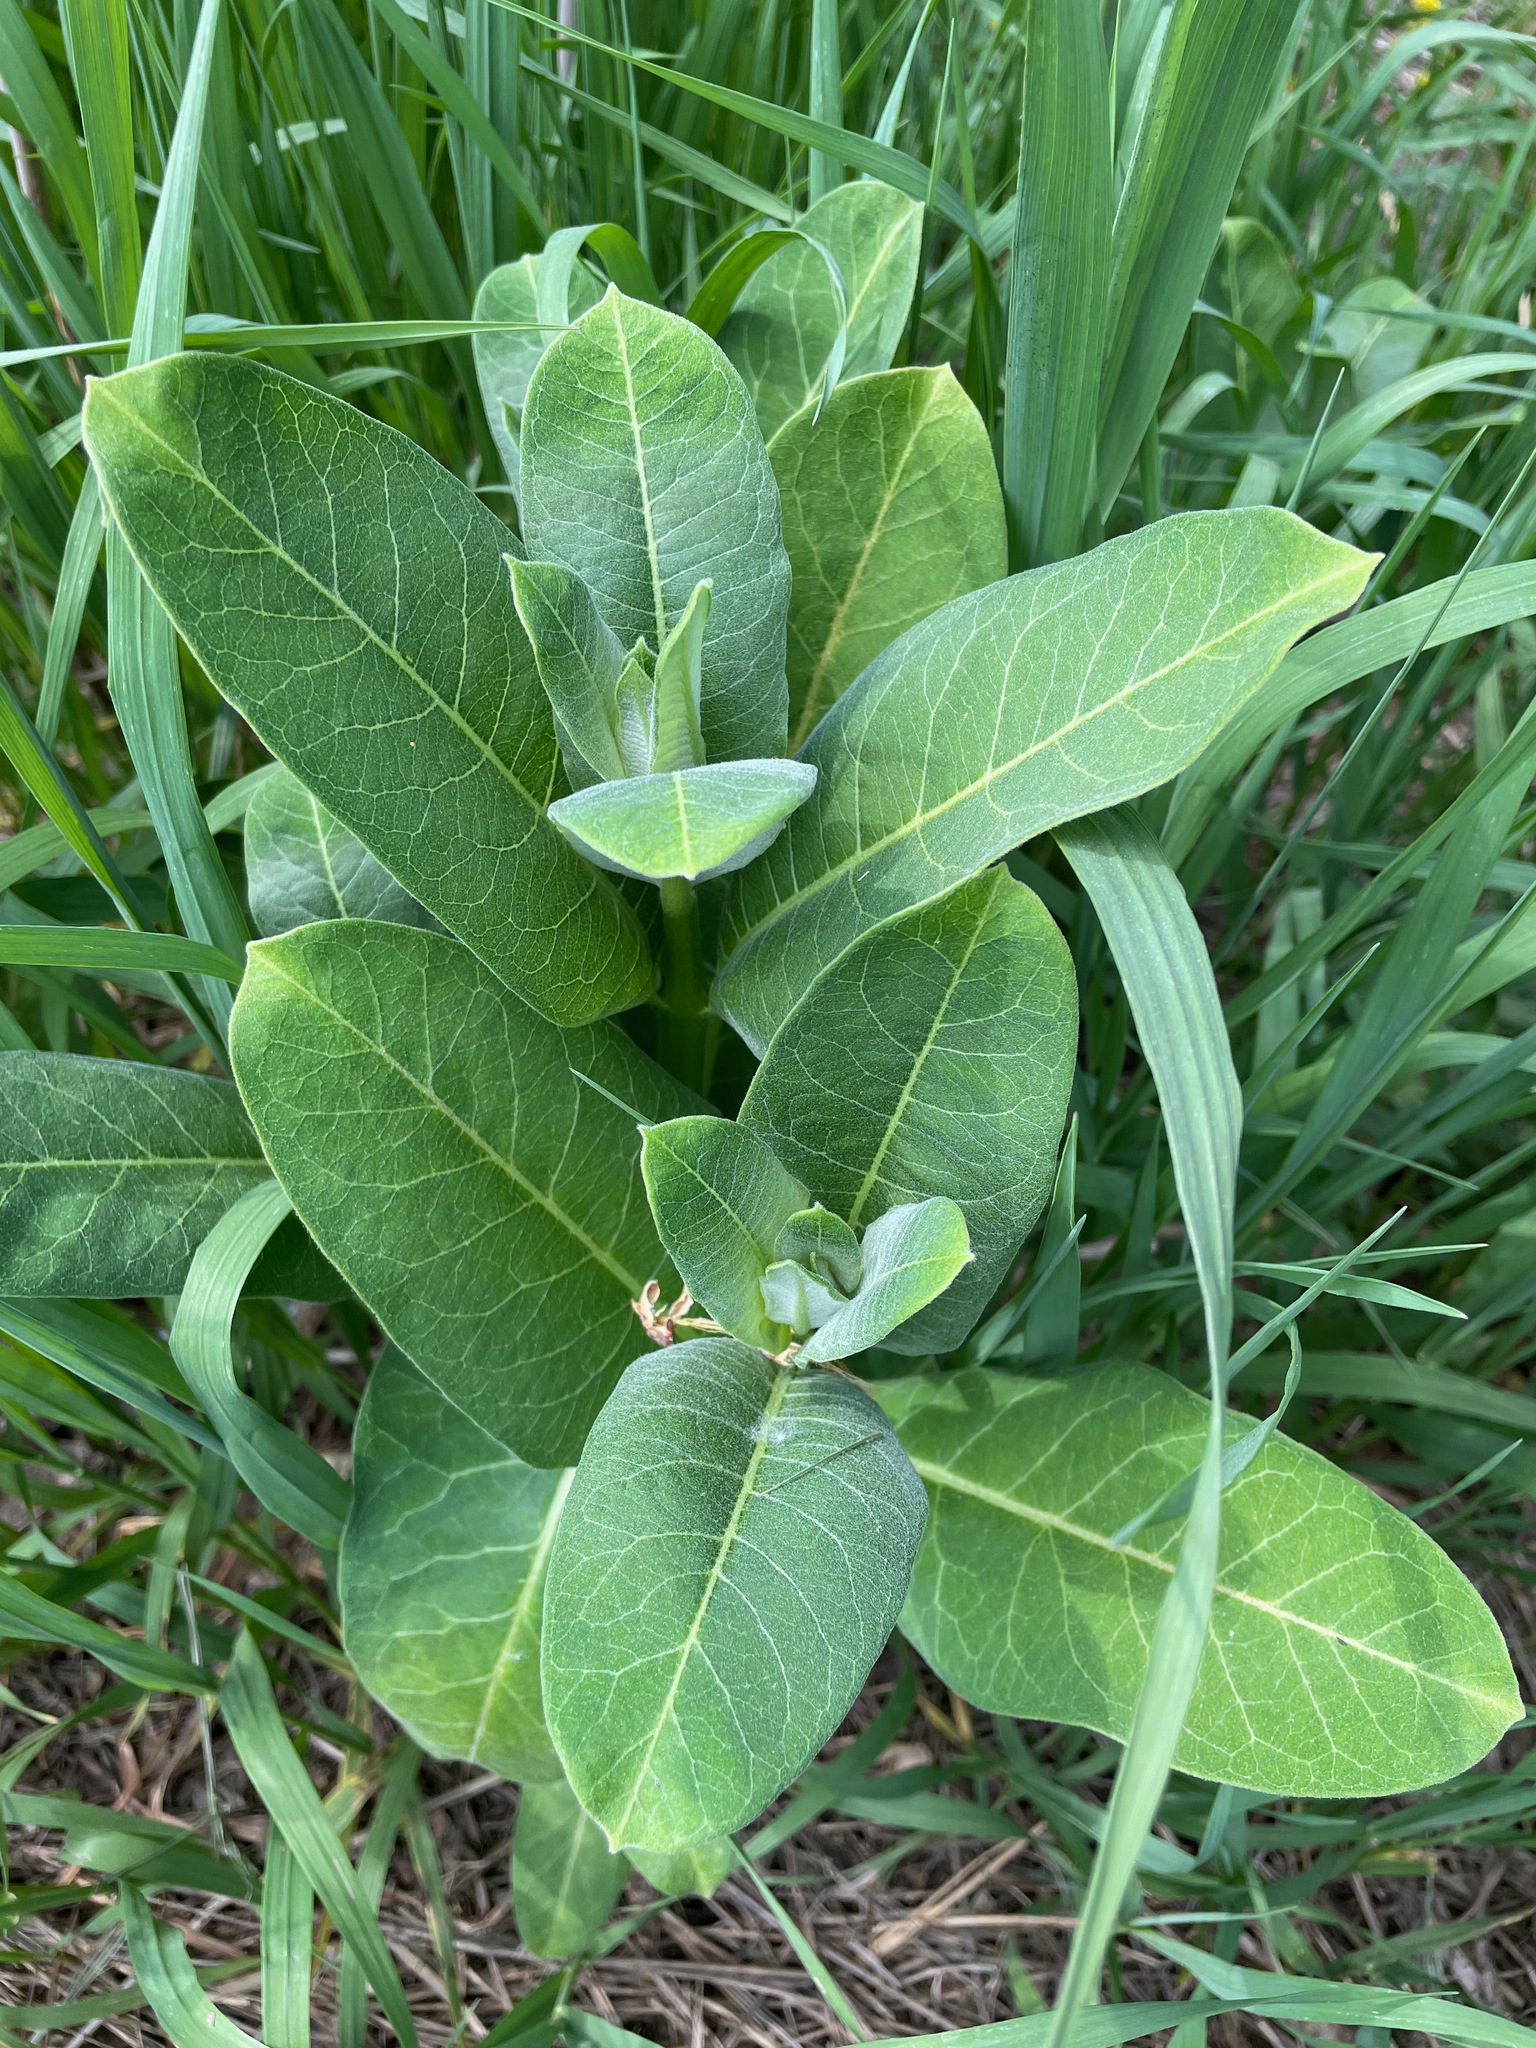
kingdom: Plantae
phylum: Tracheophyta
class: Magnoliopsida
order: Gentianales
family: Apocynaceae
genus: Asclepias
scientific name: Asclepias syriaca
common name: Common milkweed
